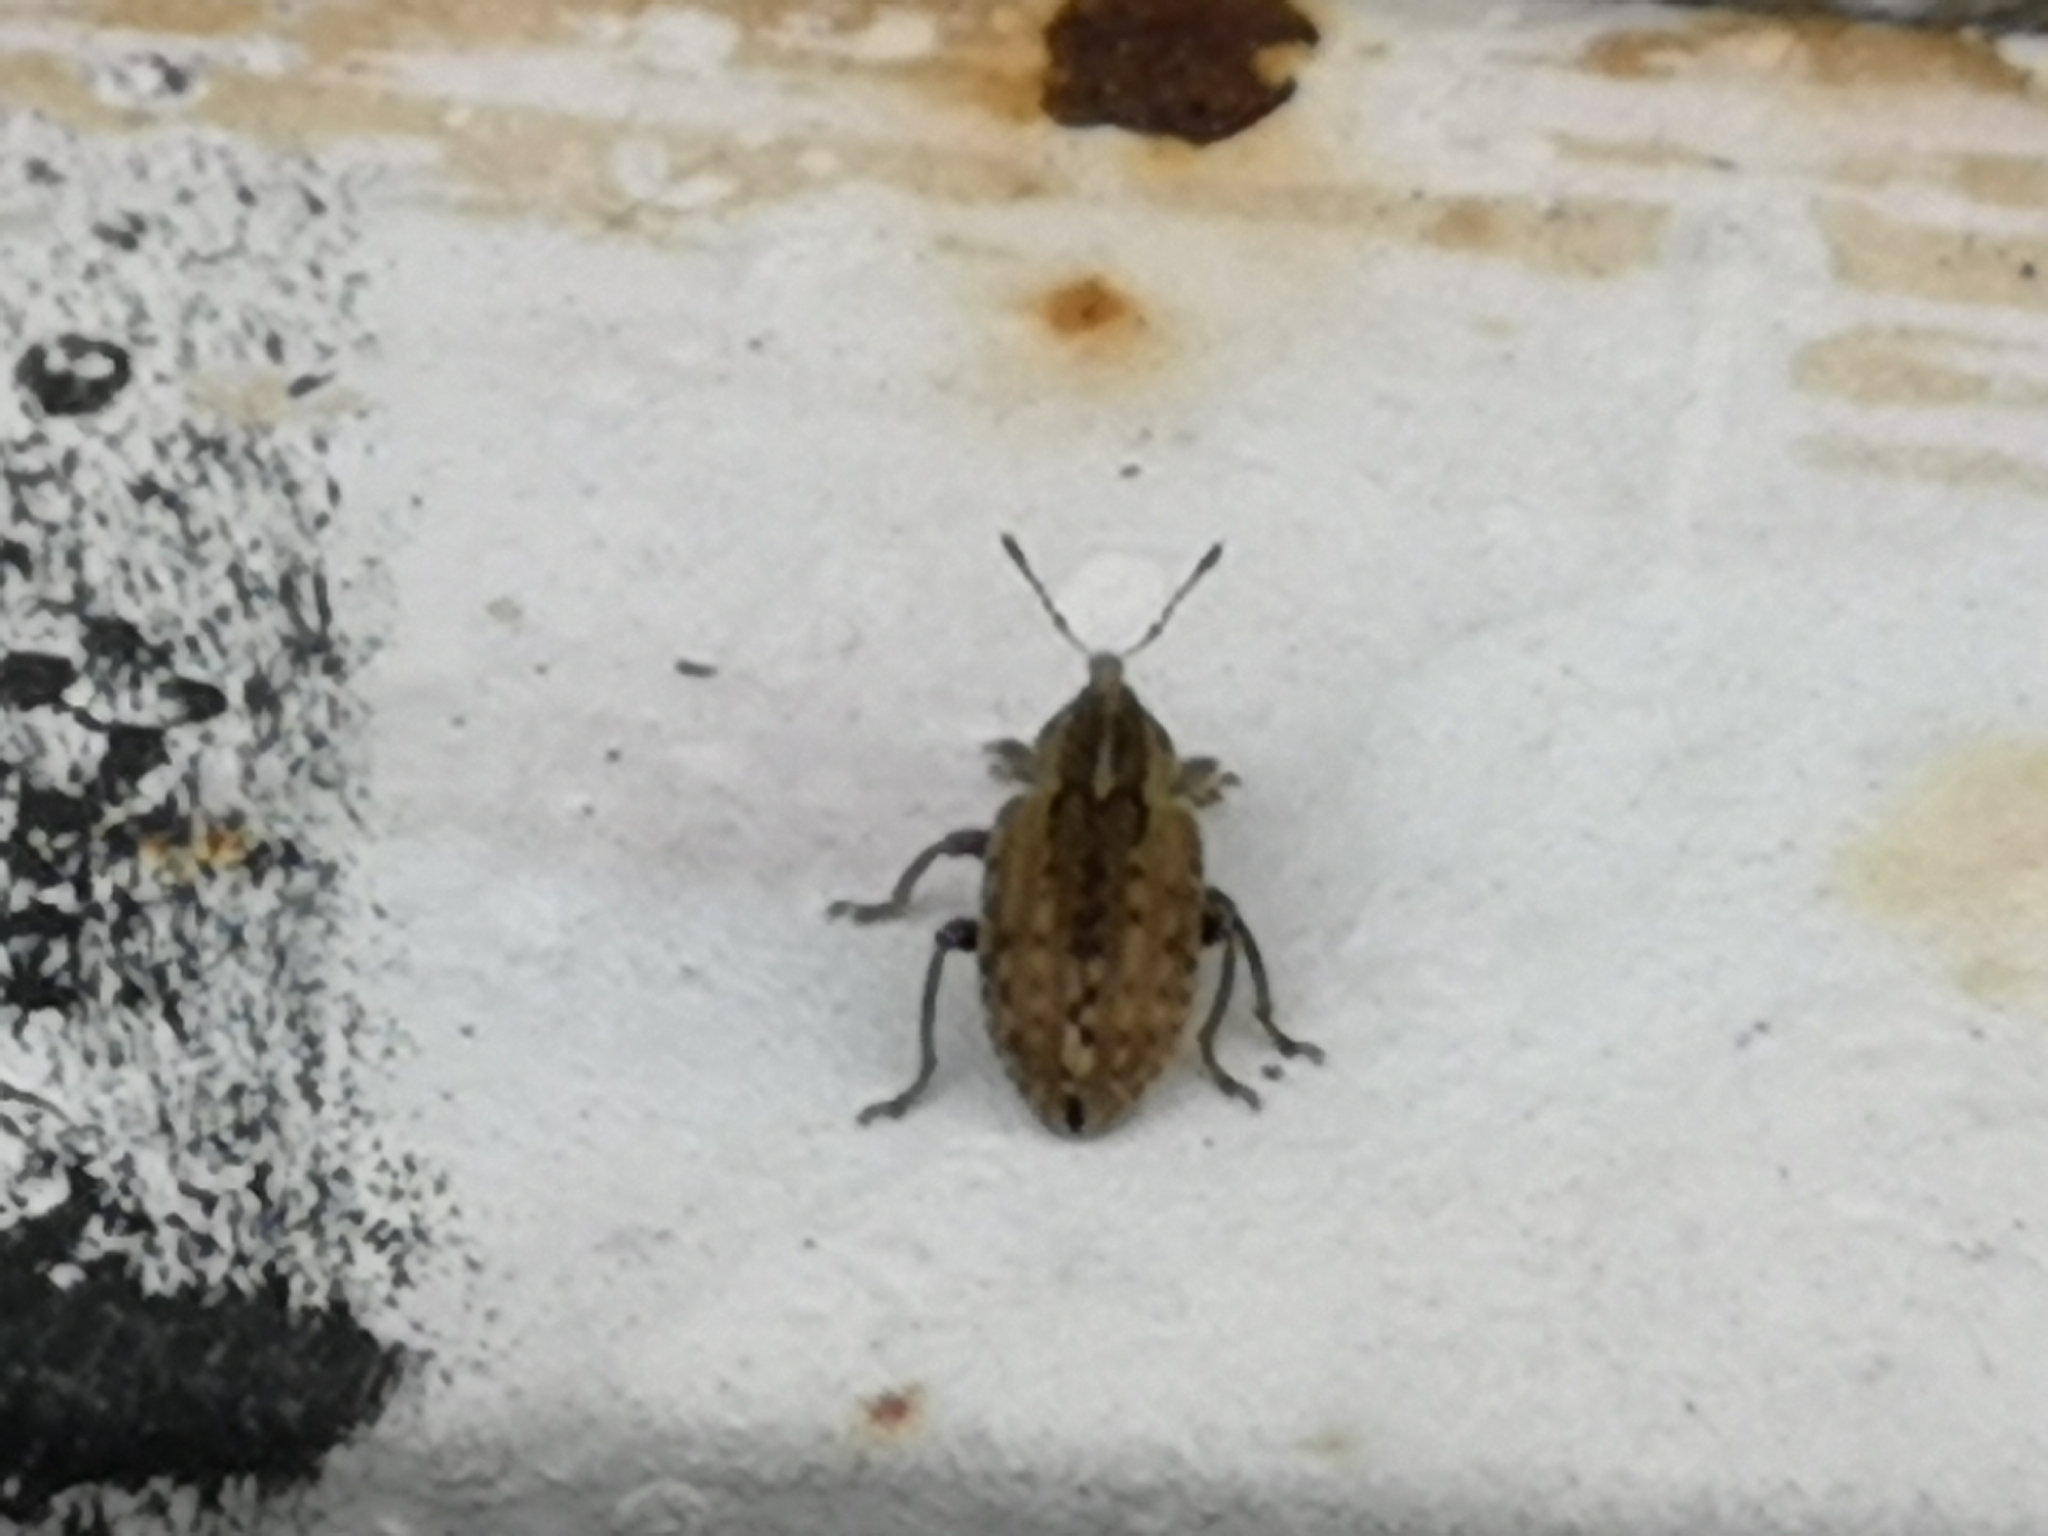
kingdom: Animalia
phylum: Arthropoda
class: Insecta
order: Coleoptera
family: Curculionidae
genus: Hypera
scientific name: Hypera postica
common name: Weevil
